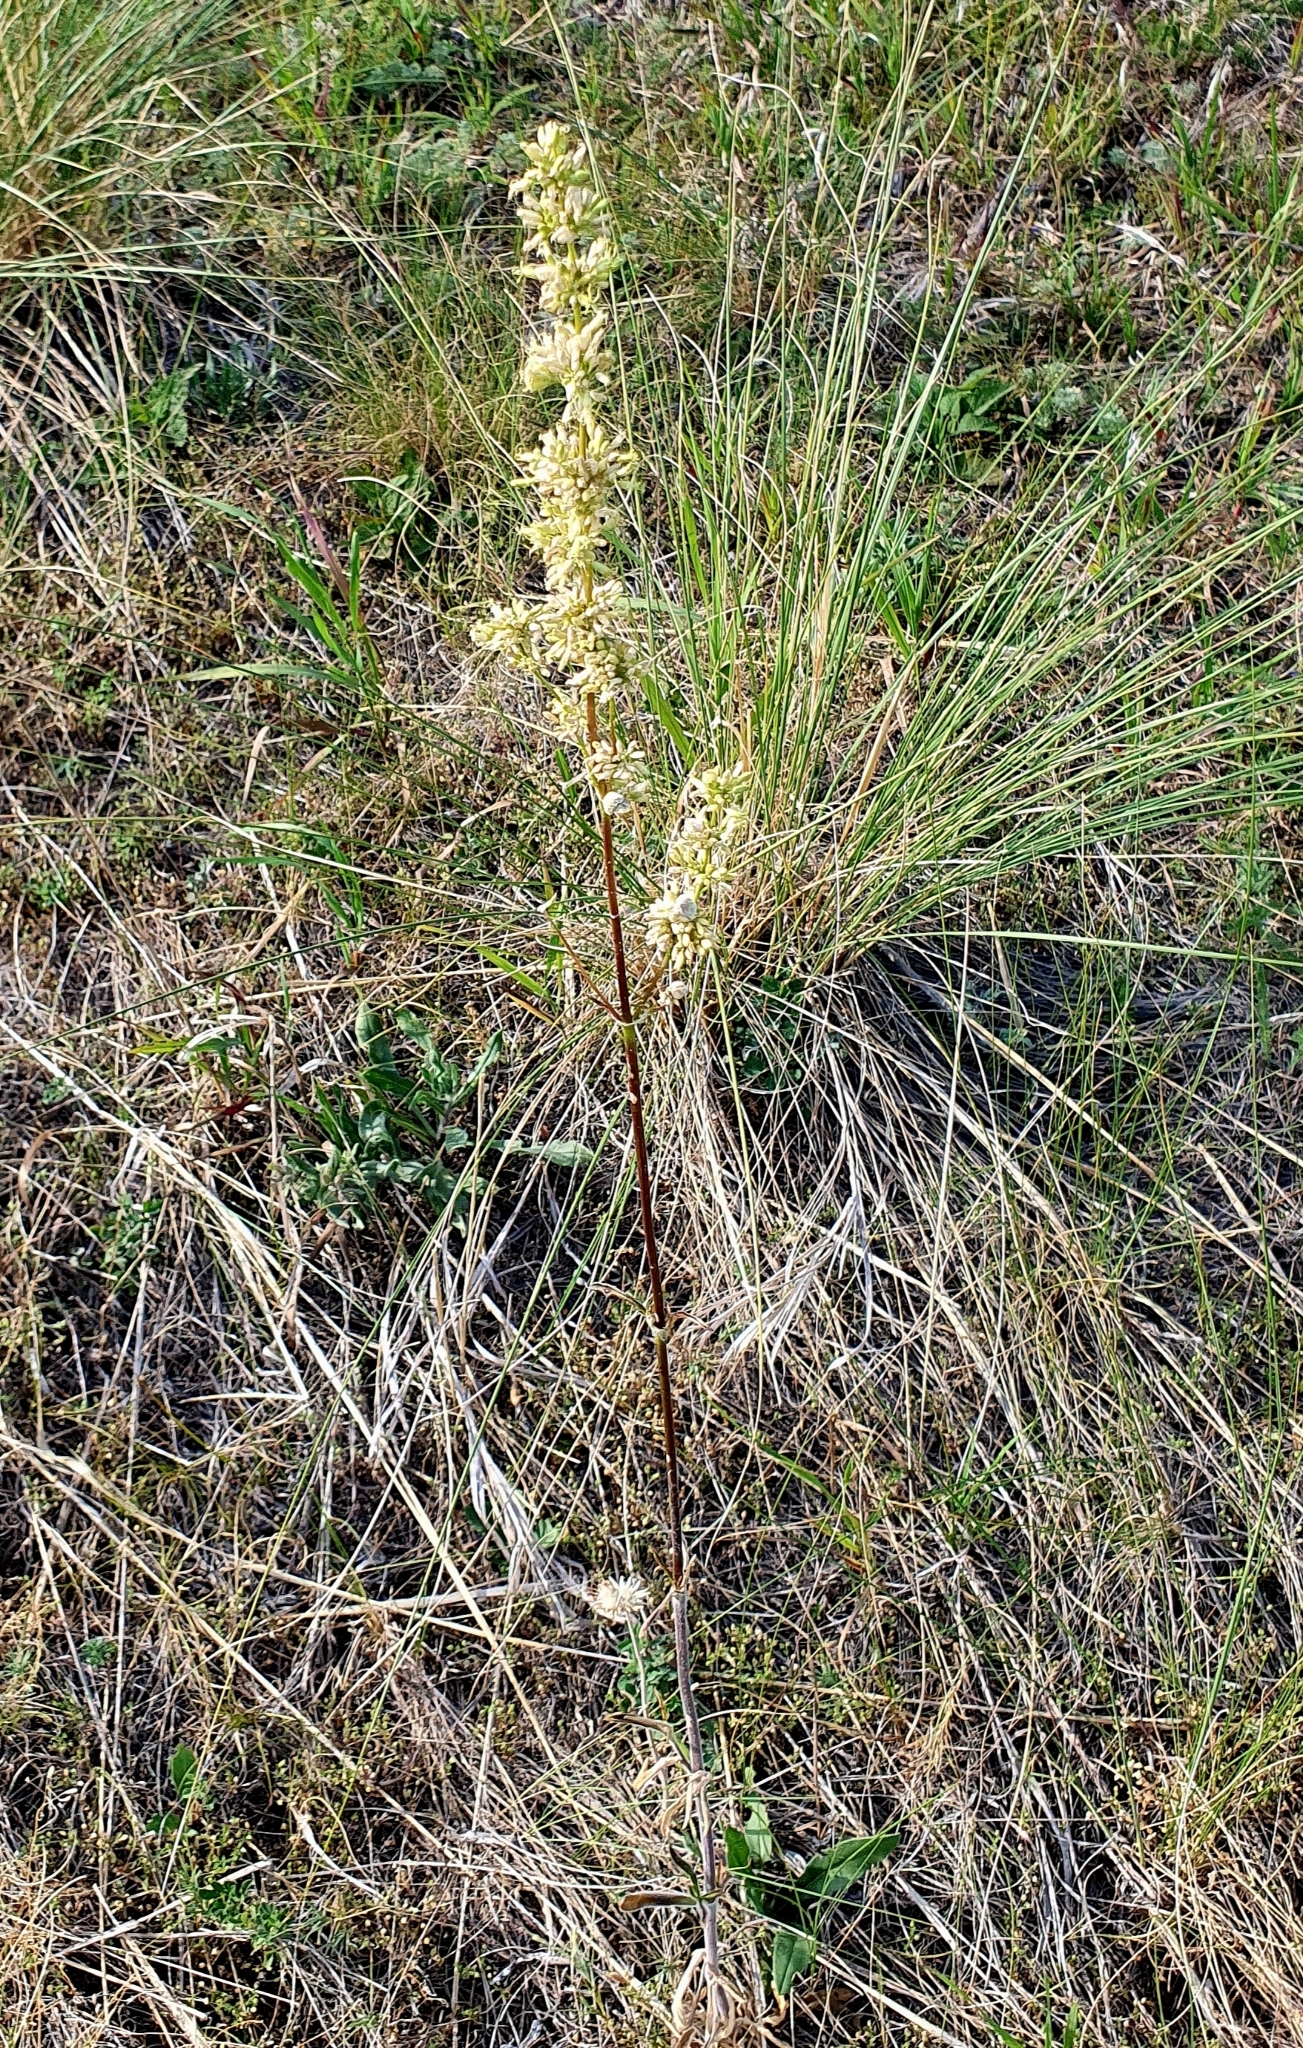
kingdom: Plantae
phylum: Tracheophyta
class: Magnoliopsida
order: Caryophyllales
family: Caryophyllaceae
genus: Silene
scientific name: Silene borysthenica
